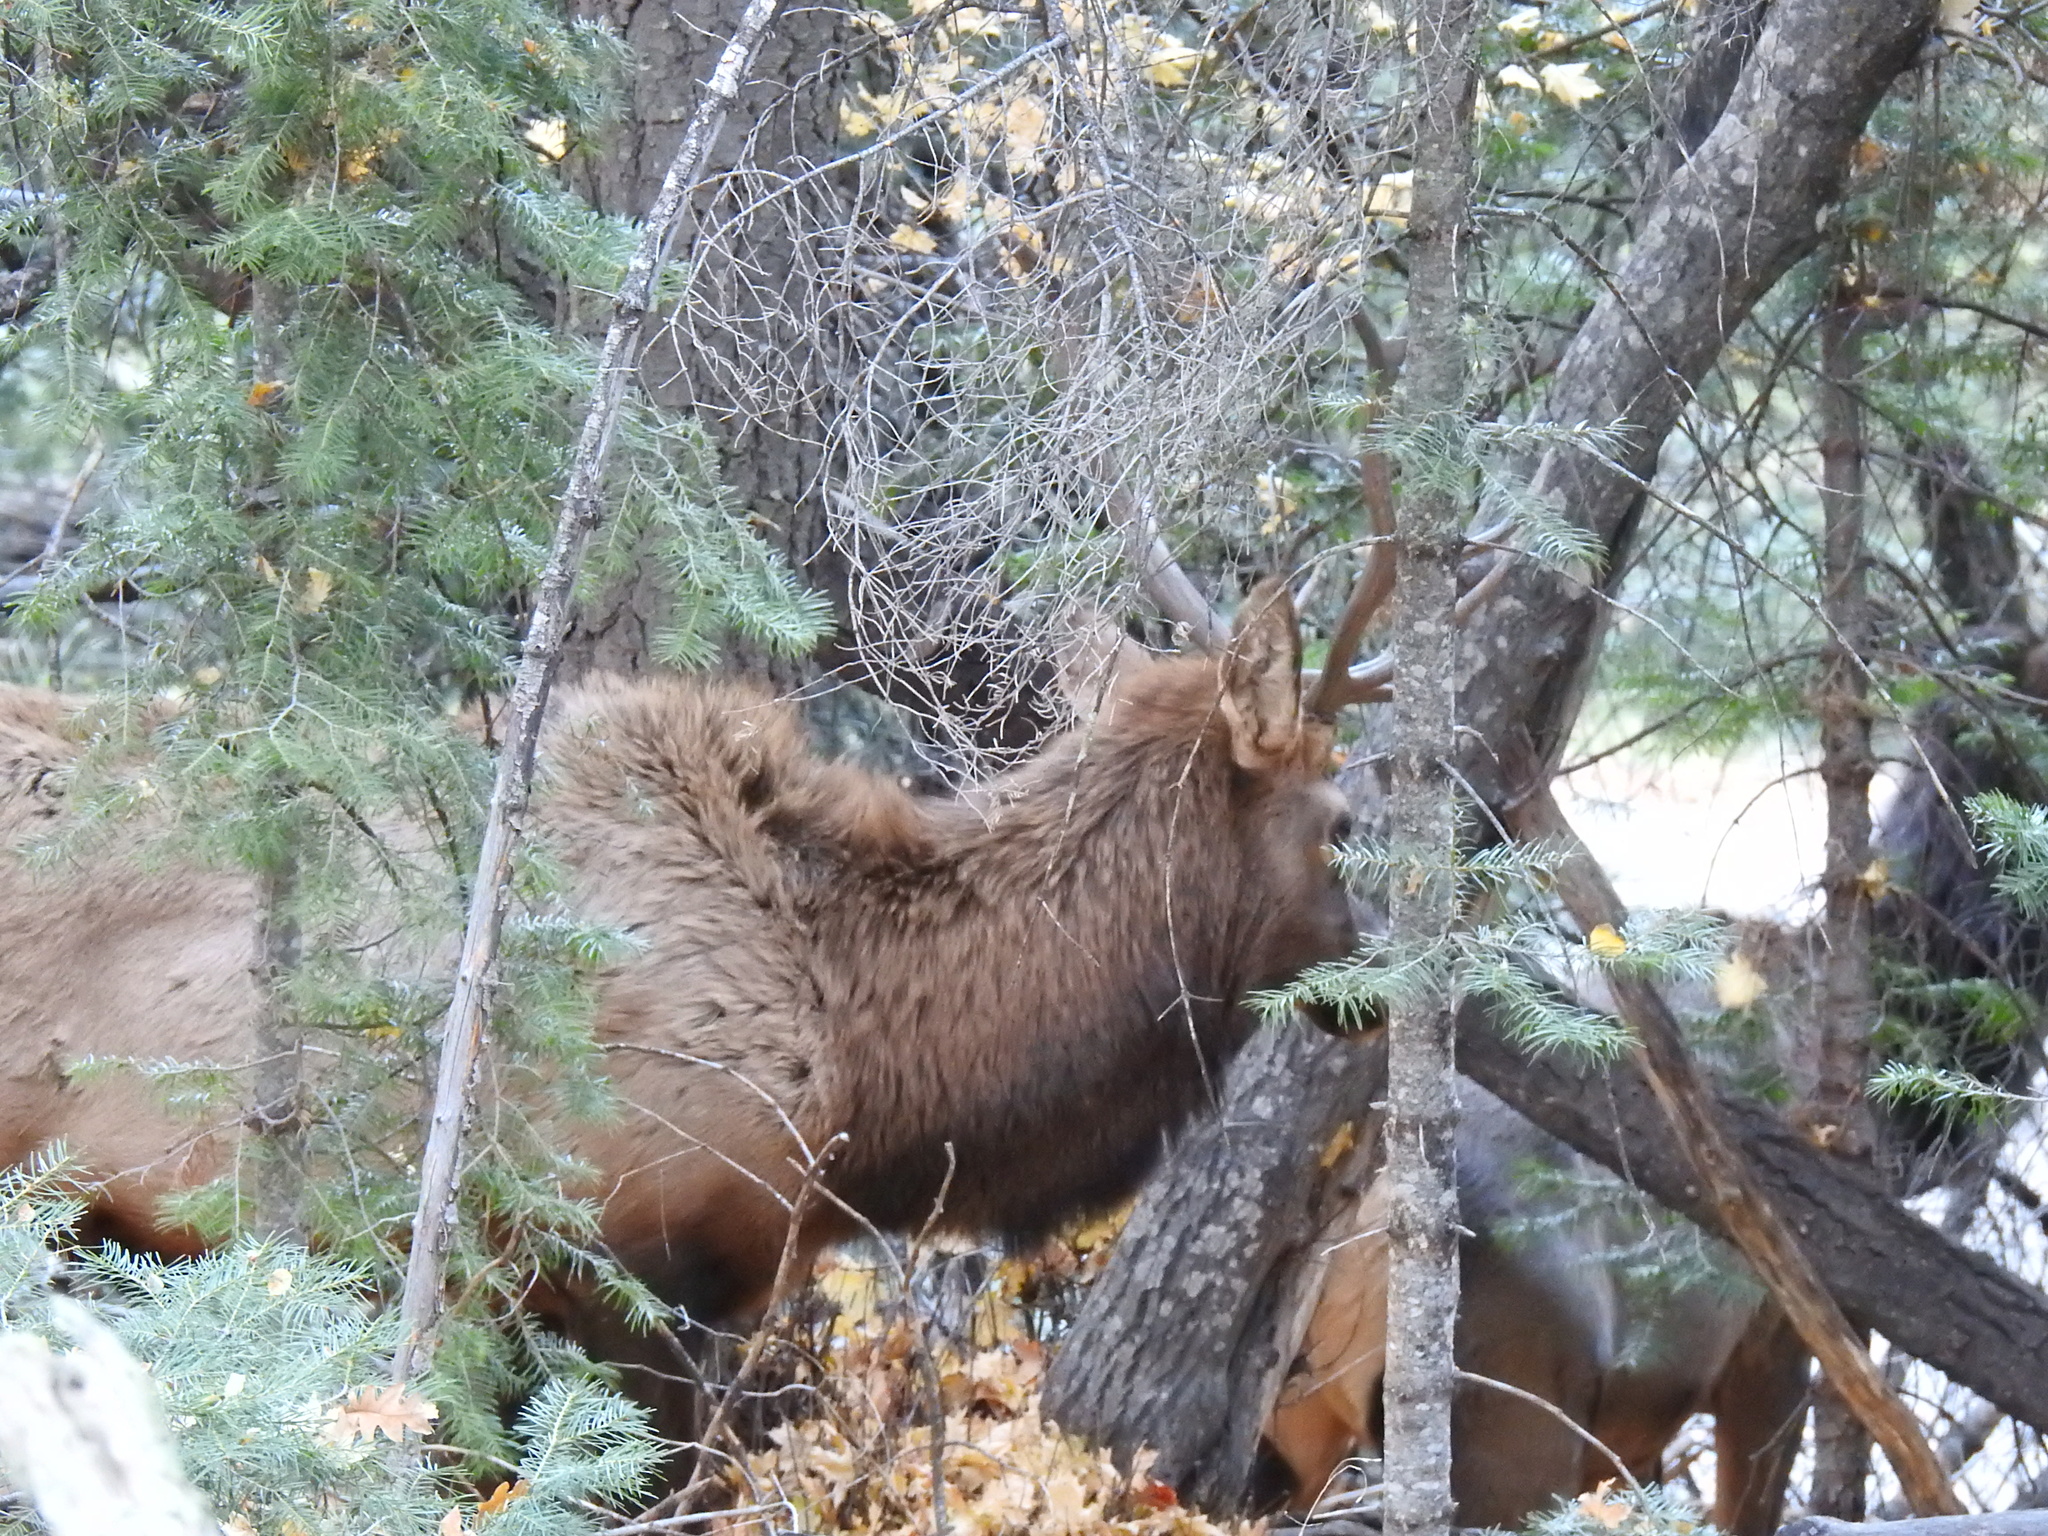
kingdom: Animalia
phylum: Chordata
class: Mammalia
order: Artiodactyla
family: Cervidae
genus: Cervus
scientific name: Cervus elaphus
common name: Red deer
